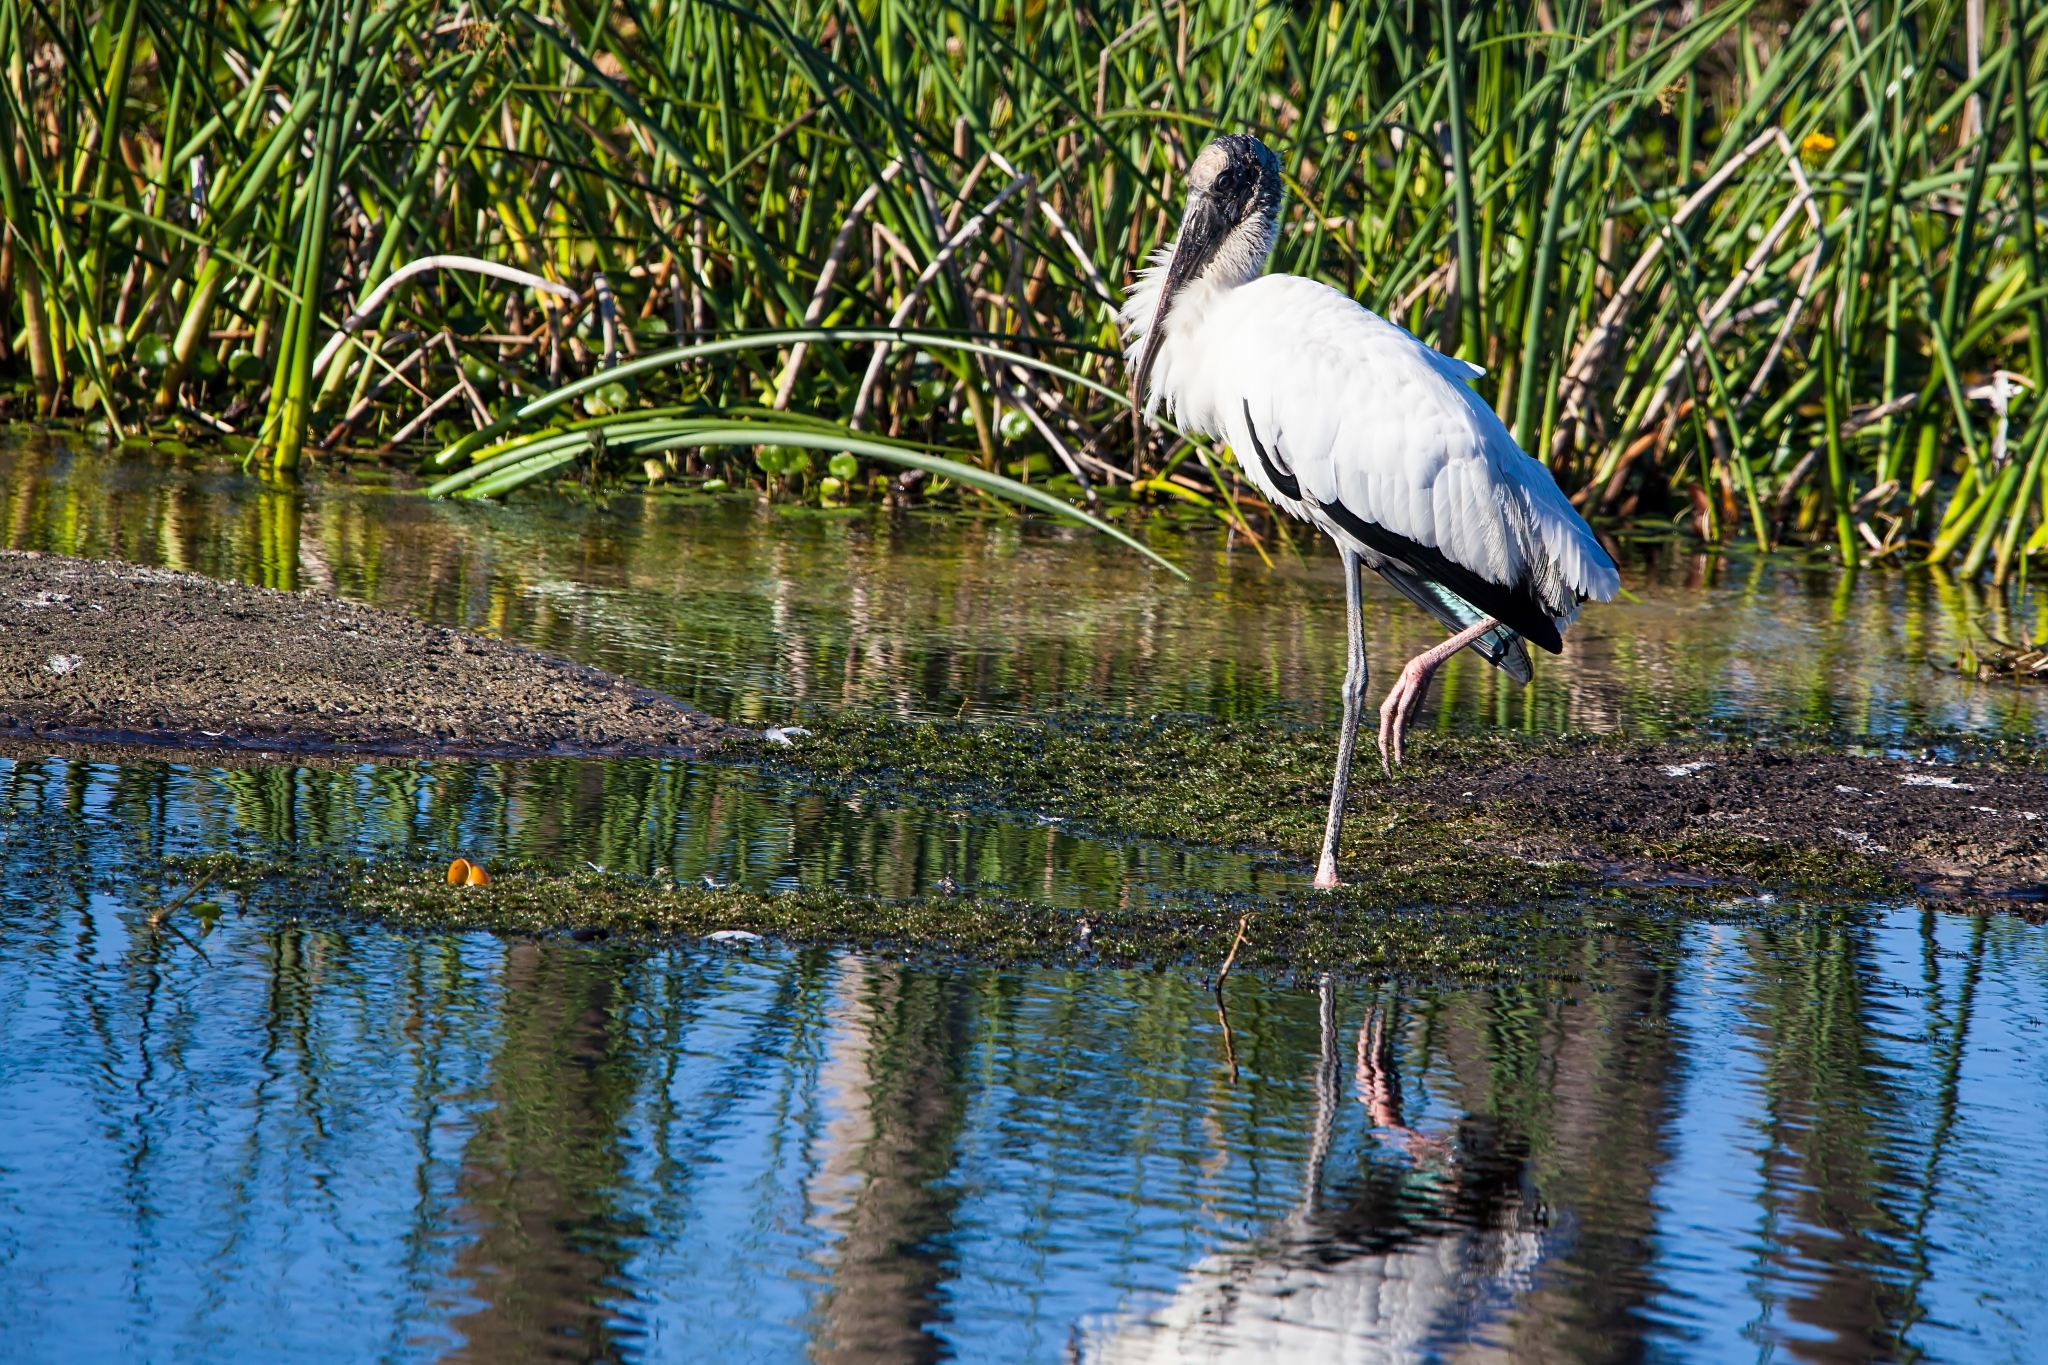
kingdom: Animalia
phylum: Chordata
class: Aves
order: Ciconiiformes
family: Ciconiidae
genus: Mycteria
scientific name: Mycteria americana
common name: Wood stork
